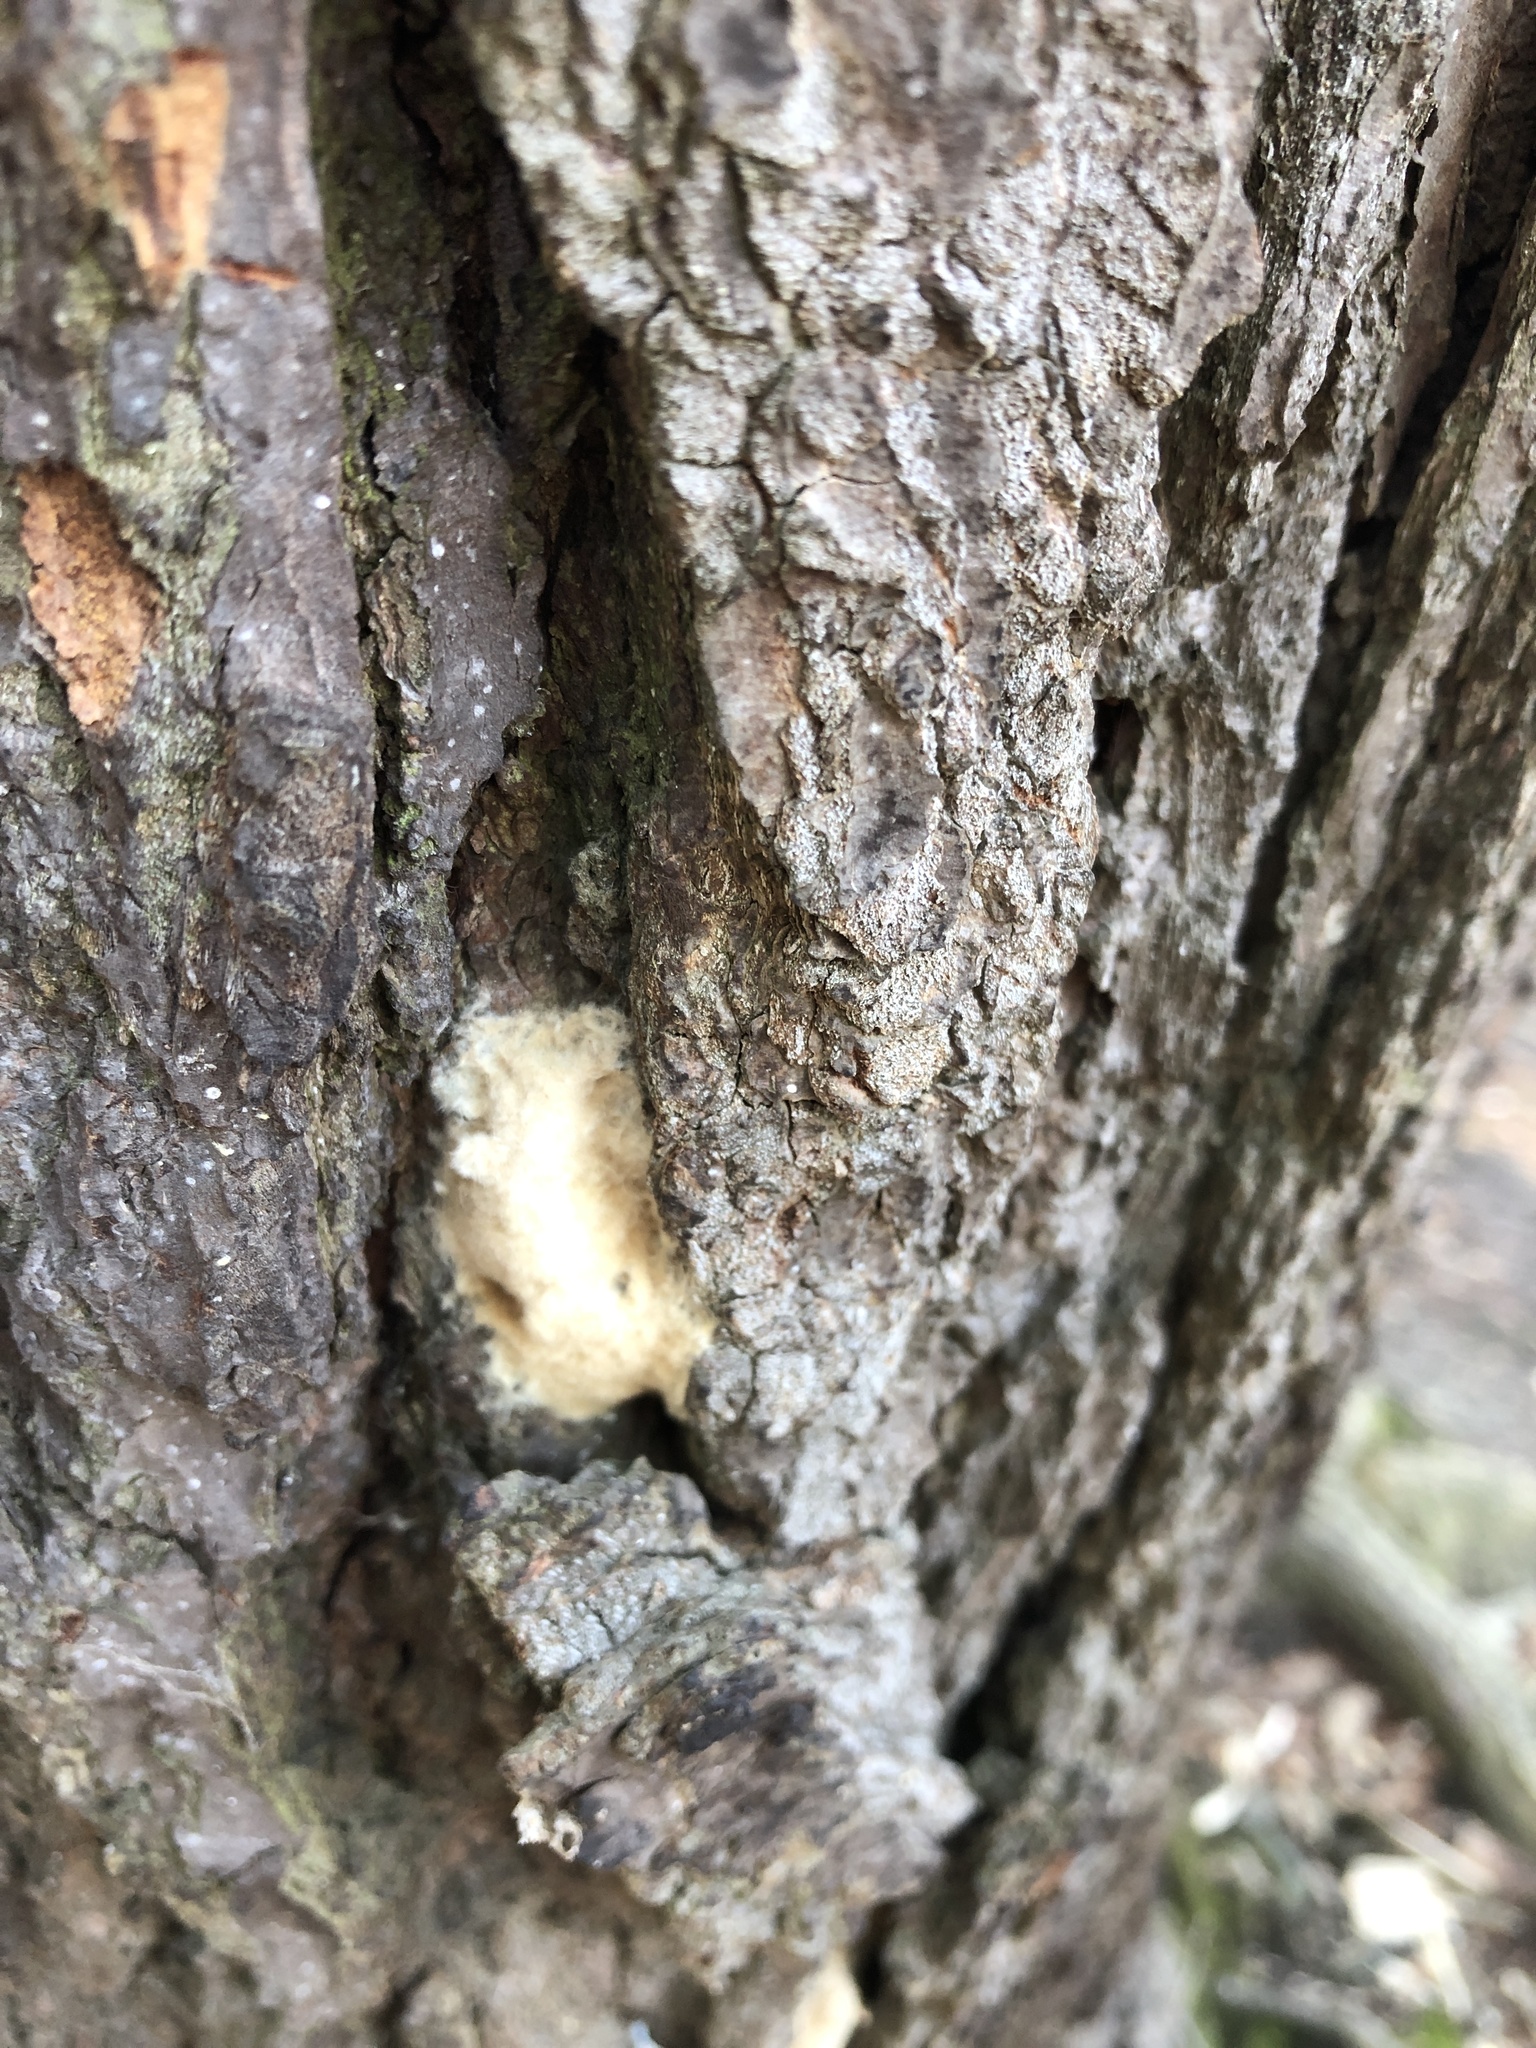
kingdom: Animalia
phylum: Arthropoda
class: Insecta
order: Lepidoptera
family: Erebidae
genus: Lymantria
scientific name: Lymantria dispar
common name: Gypsy moth
